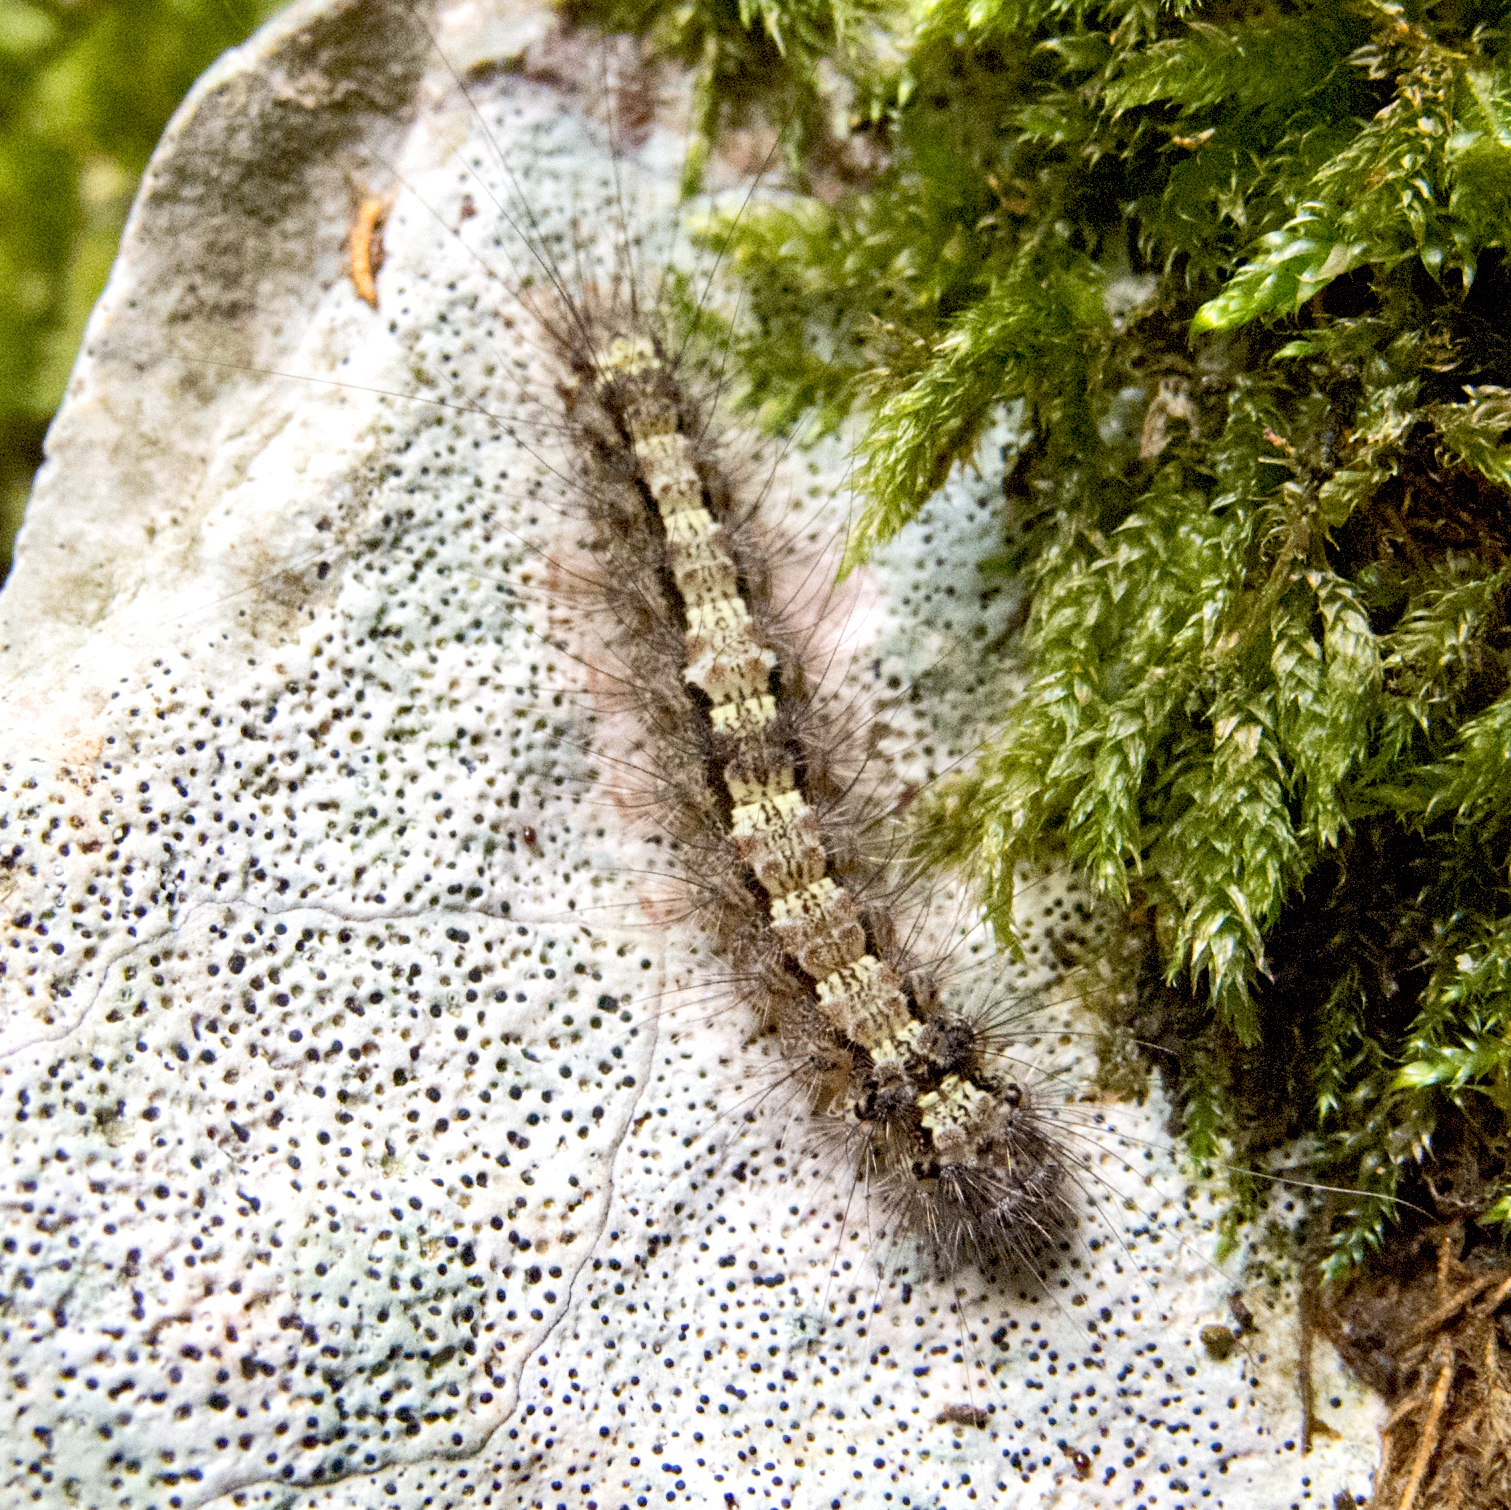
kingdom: Animalia
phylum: Arthropoda
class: Insecta
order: Lepidoptera
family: Erebidae
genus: Katha
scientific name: Katha depressa
